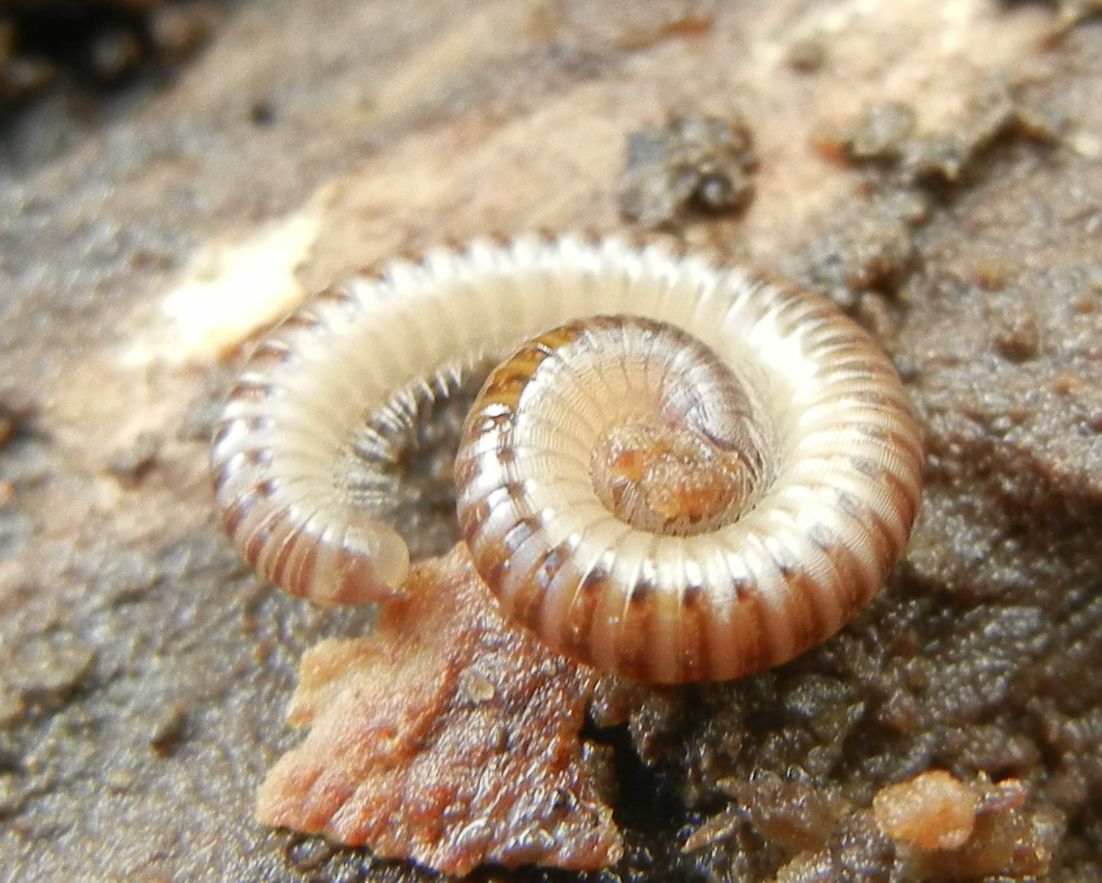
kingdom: Animalia
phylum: Arthropoda
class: Diplopoda
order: Julida
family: Julidae
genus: Cylindroiulus
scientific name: Cylindroiulus punctatus
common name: Blunt-tailed millipede
